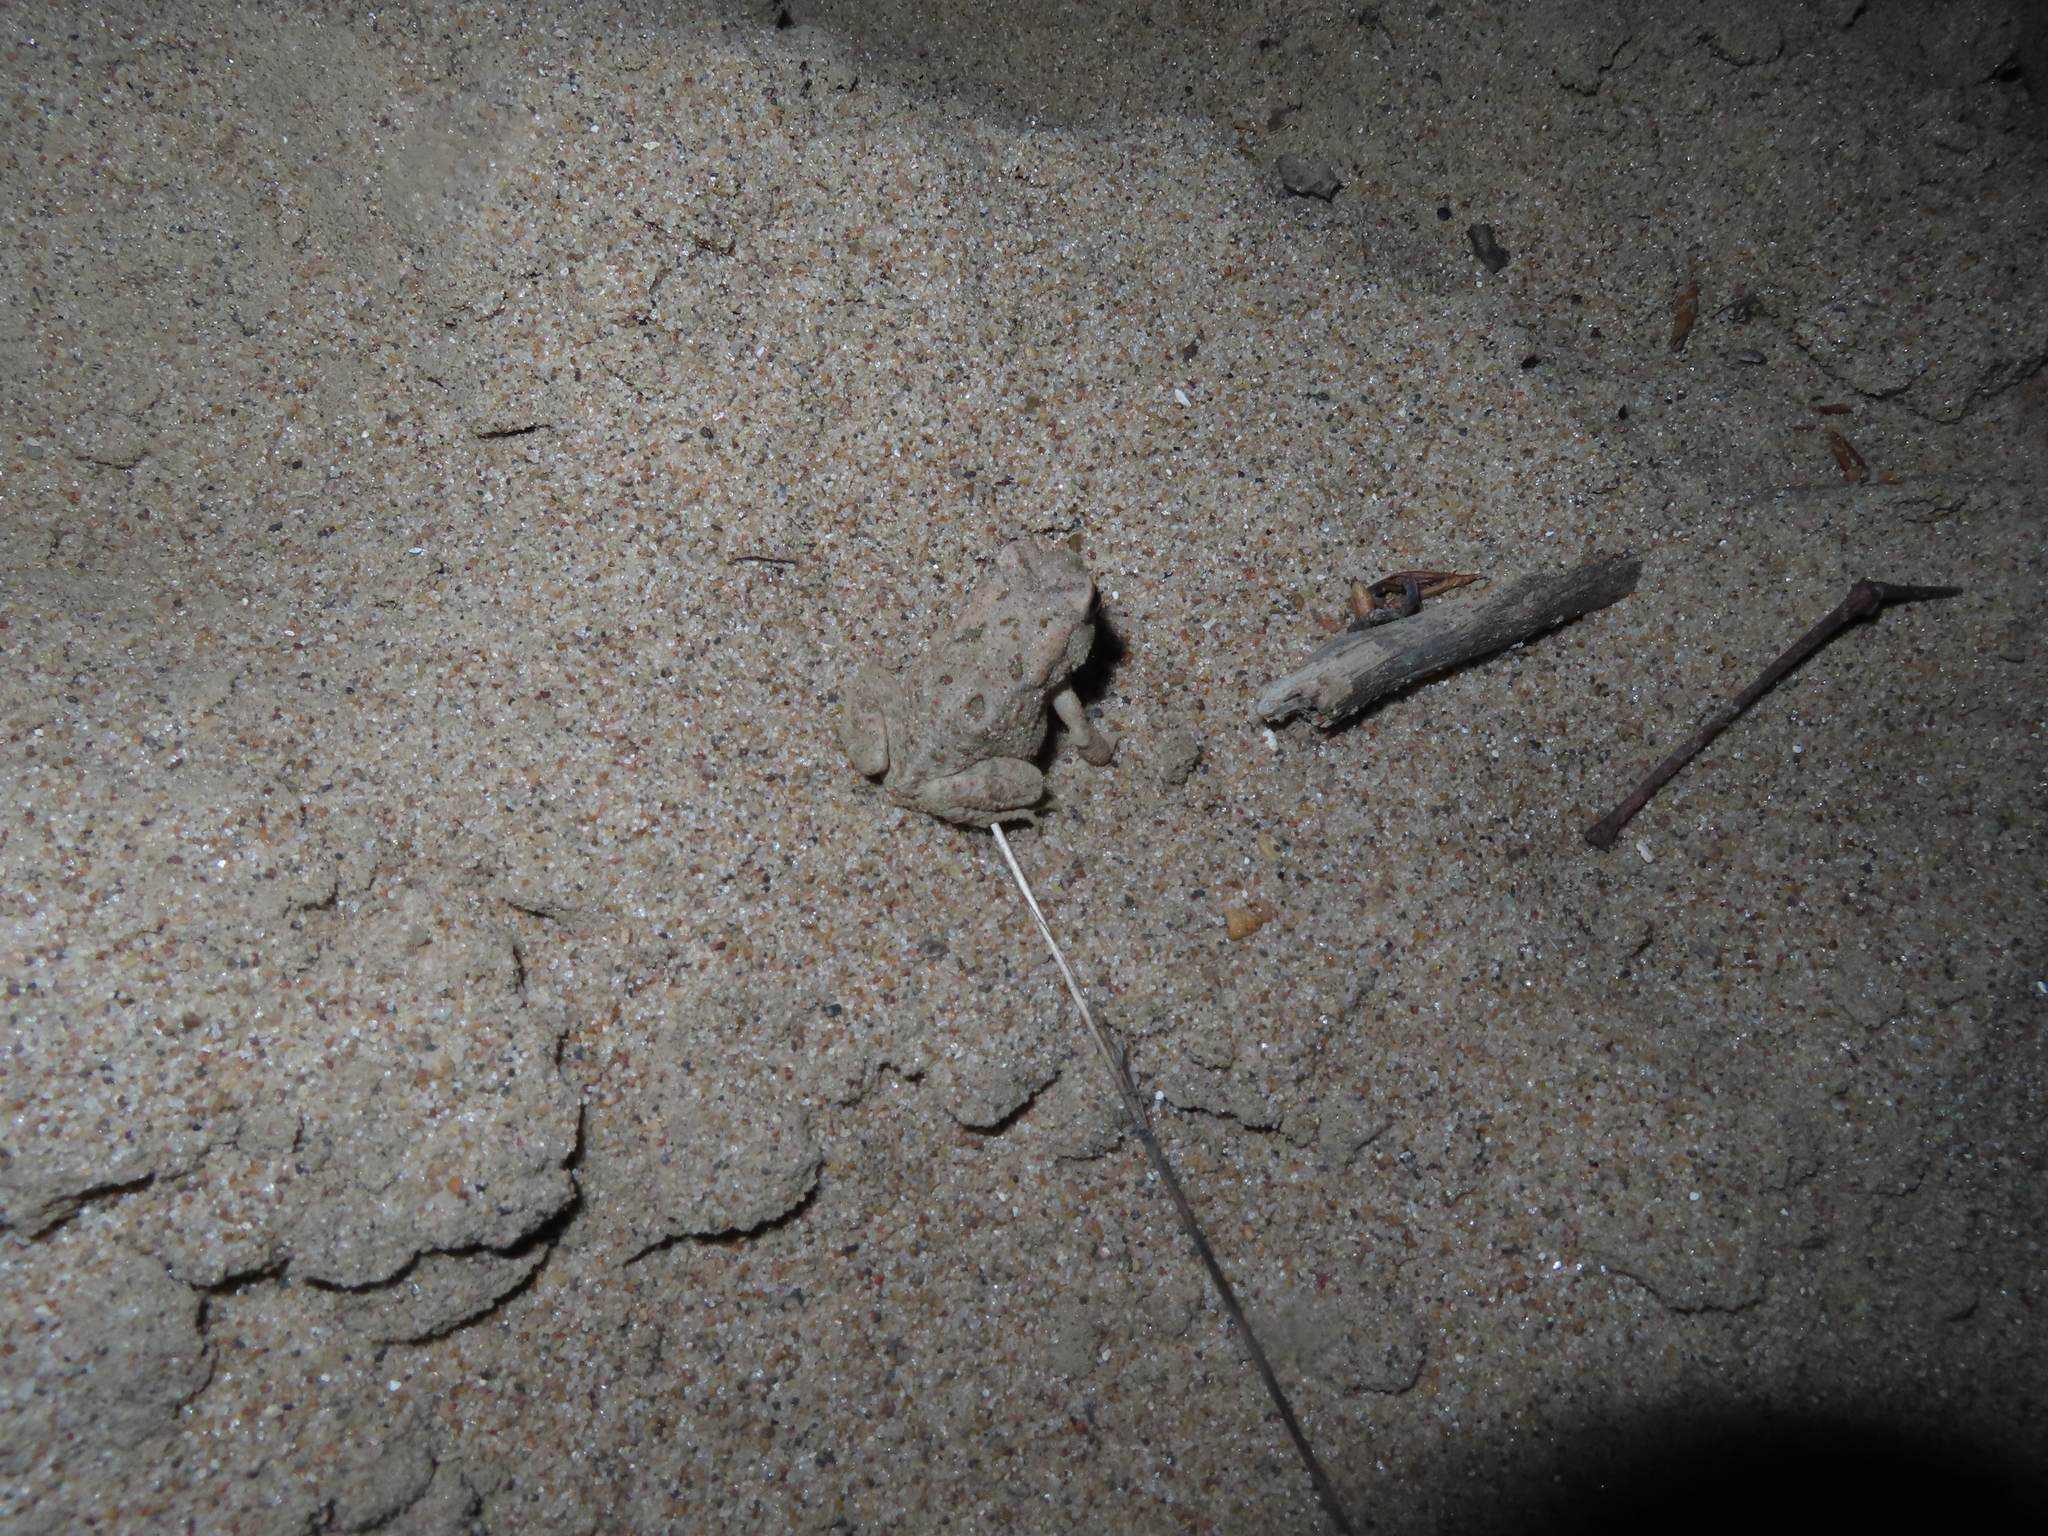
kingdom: Animalia
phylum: Chordata
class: Amphibia
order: Anura
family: Bufonidae
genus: Anaxyrus
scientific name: Anaxyrus fowleri
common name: Fowler's toad
